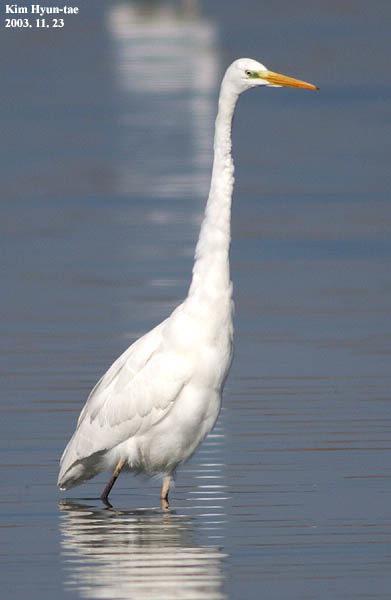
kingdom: Animalia
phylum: Chordata
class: Aves
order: Pelecaniformes
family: Ardeidae
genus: Ardea
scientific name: Ardea alba
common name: Great egret
